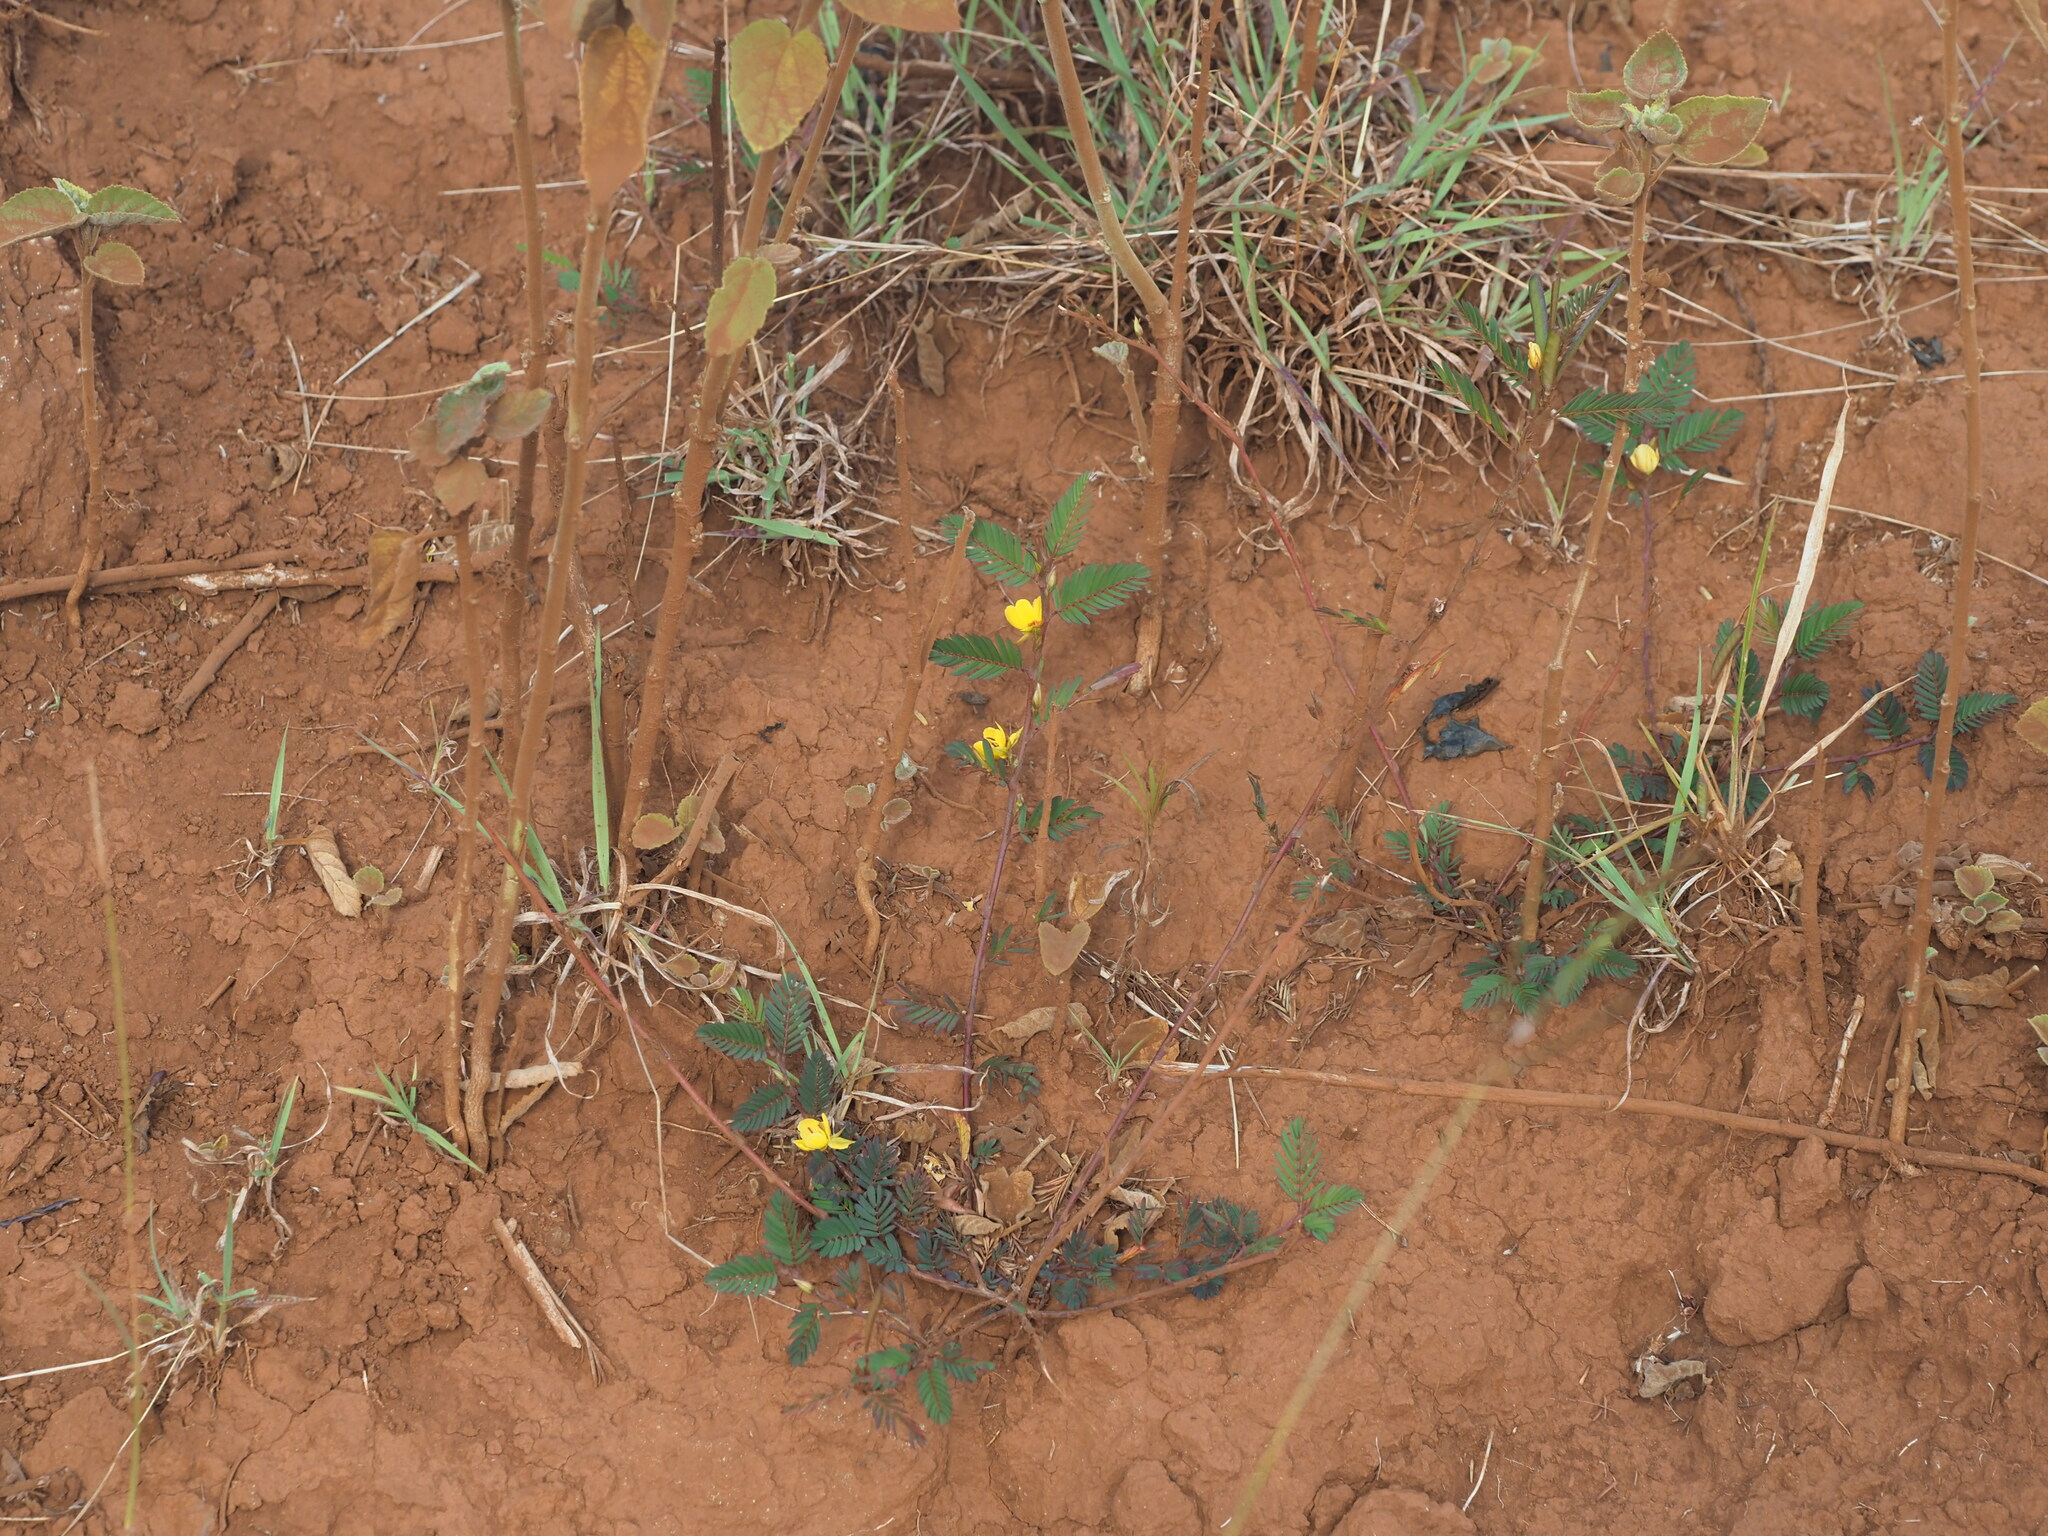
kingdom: Plantae
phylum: Tracheophyta
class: Magnoliopsida
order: Fabales
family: Fabaceae
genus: Chamaecrista
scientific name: Chamaecrista nictitans
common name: Sensitive cassia
